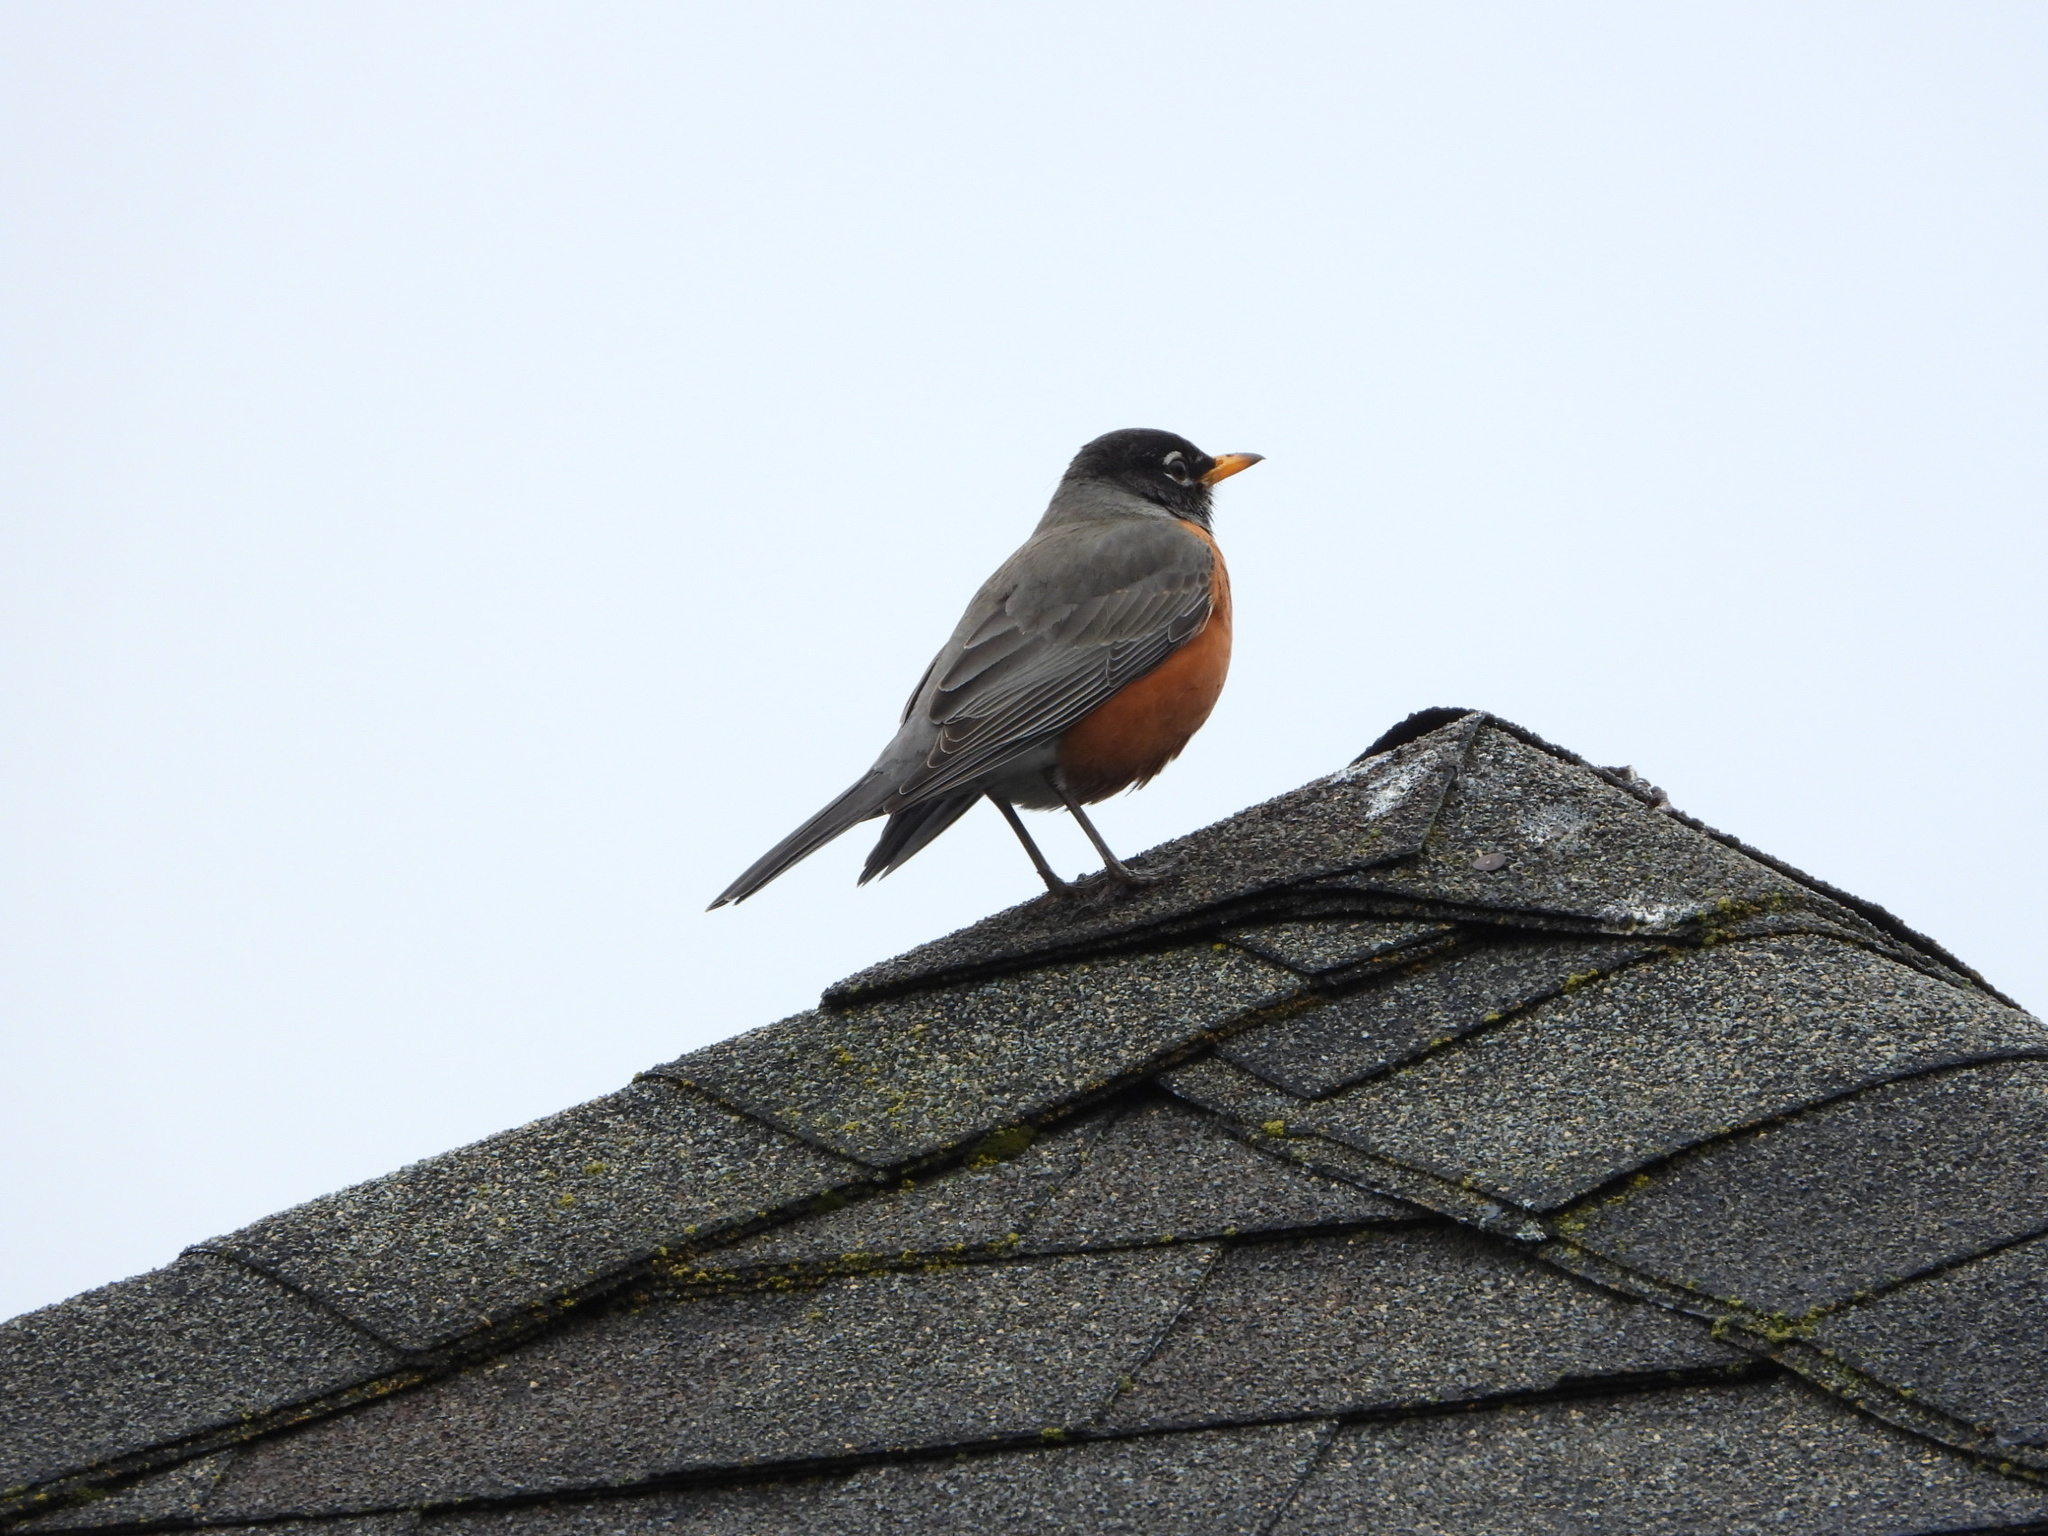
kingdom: Animalia
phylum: Chordata
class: Aves
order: Passeriformes
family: Turdidae
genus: Turdus
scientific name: Turdus migratorius
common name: American robin
